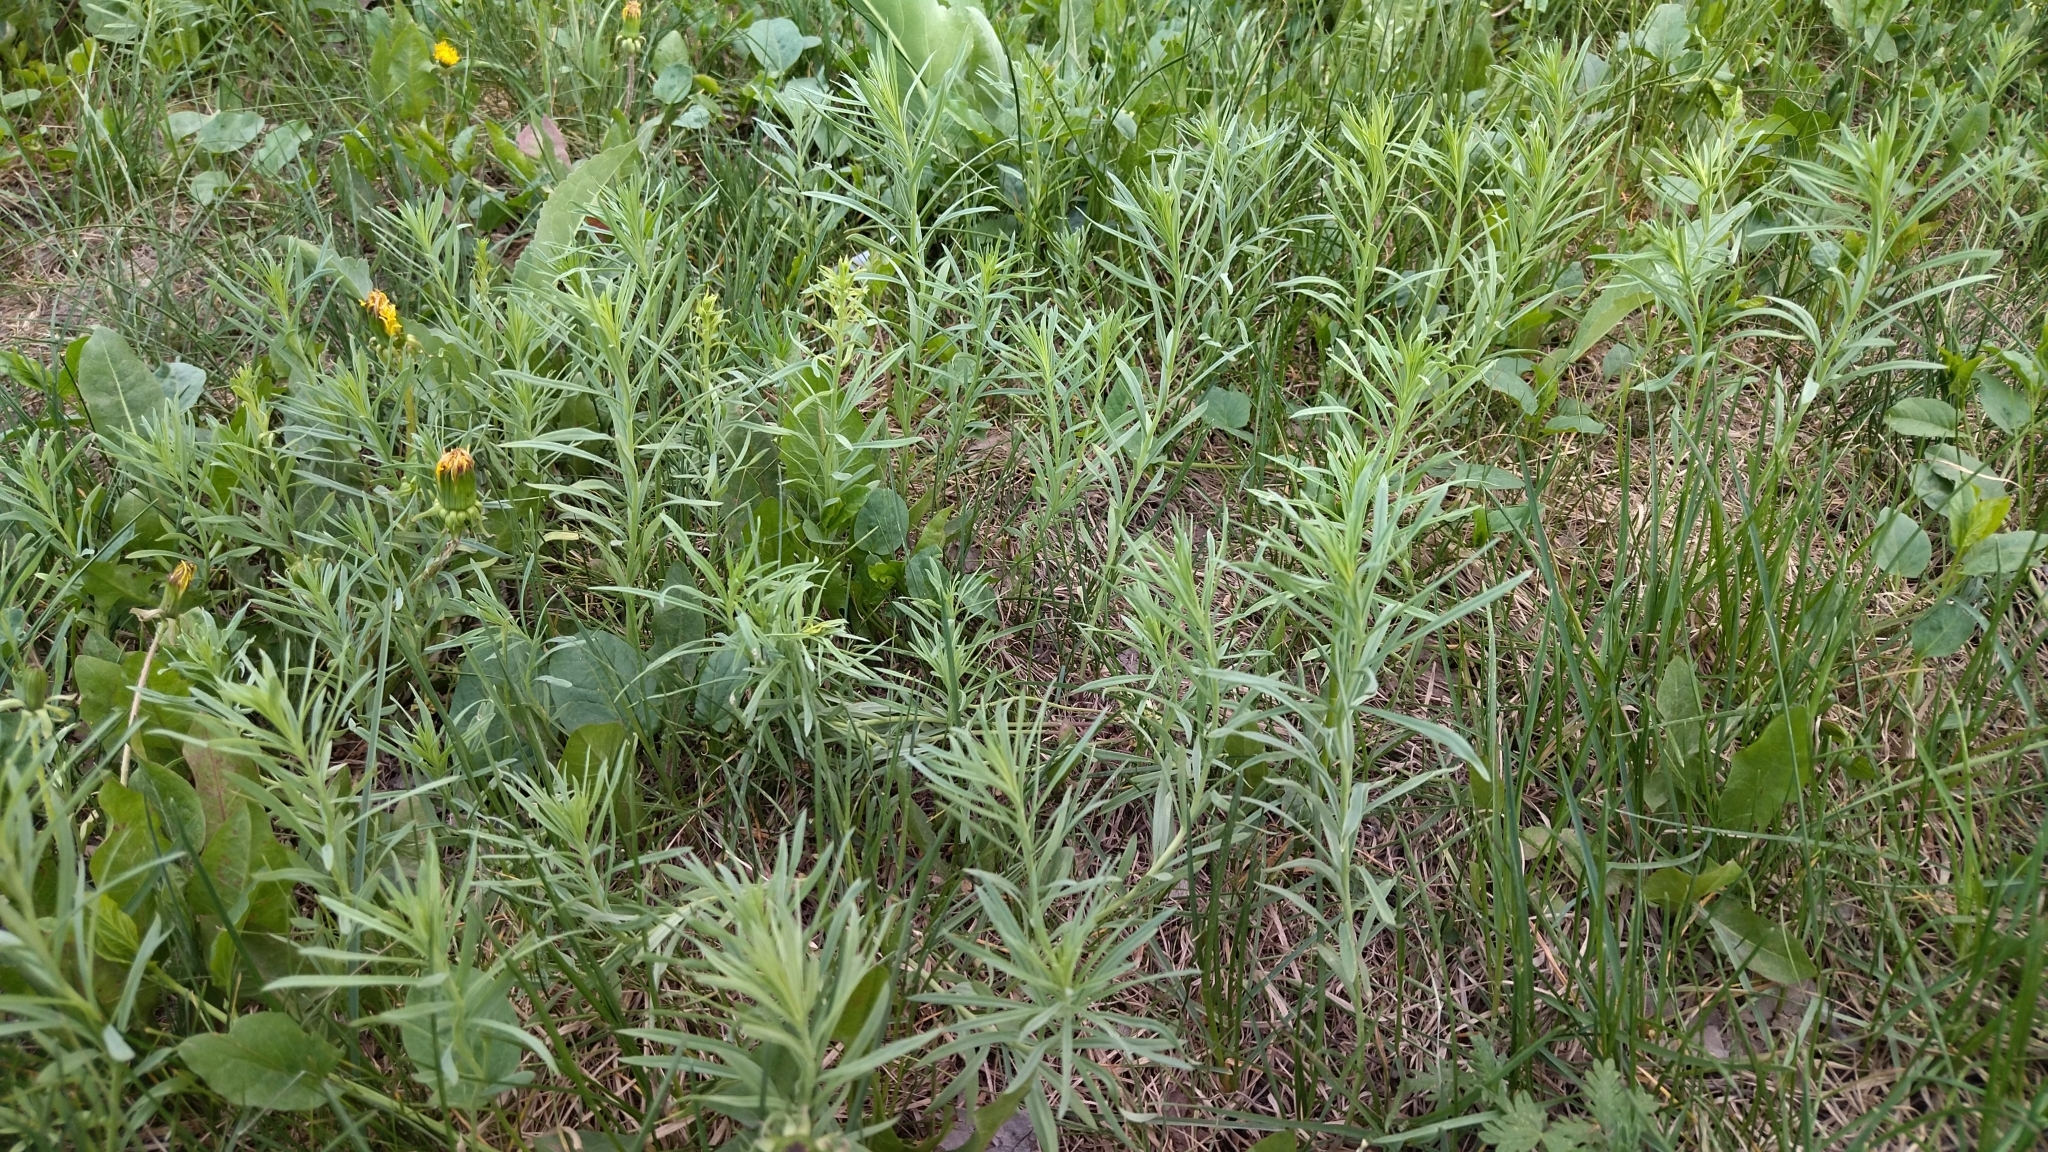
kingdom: Plantae
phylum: Tracheophyta
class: Magnoliopsida
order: Lamiales
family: Plantaginaceae
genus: Linaria
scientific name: Linaria vulgaris
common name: Butter and eggs
